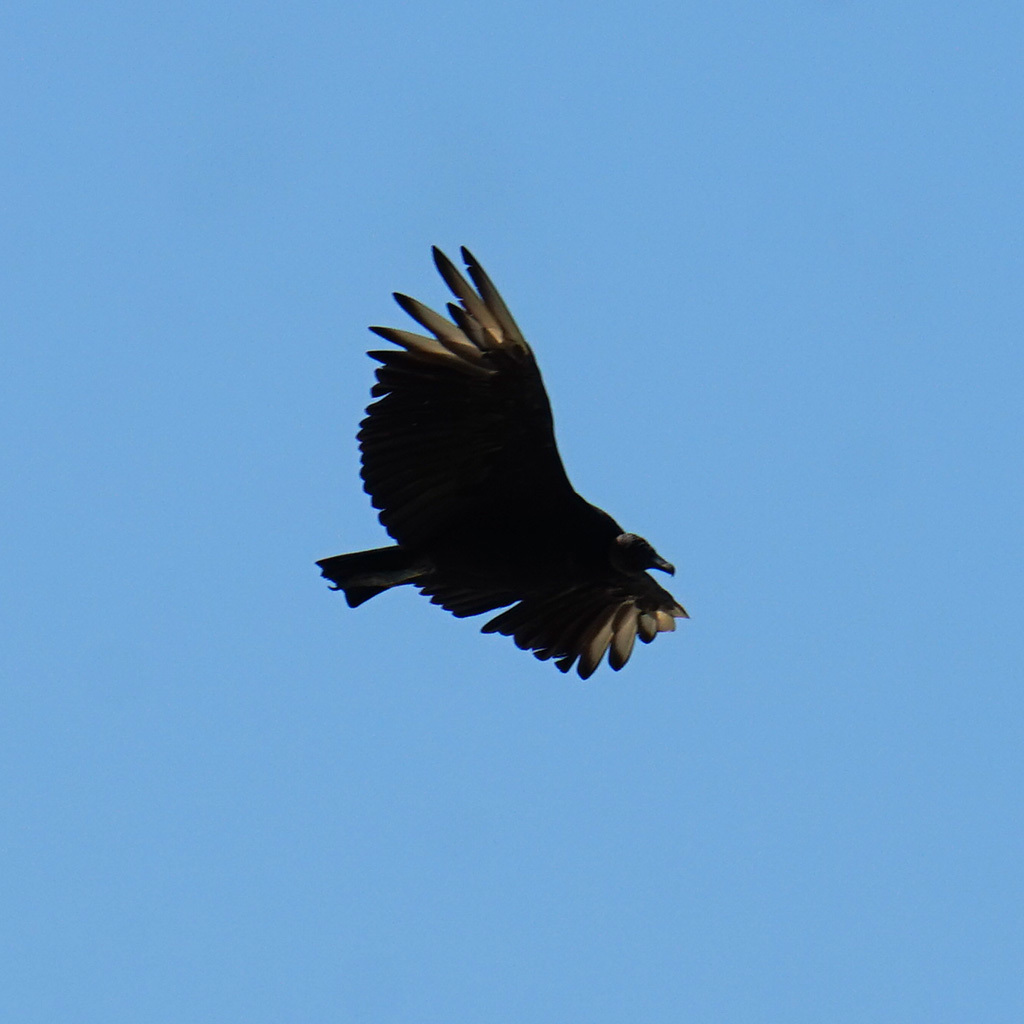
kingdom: Animalia
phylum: Chordata
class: Aves
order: Accipitriformes
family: Cathartidae
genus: Coragyps
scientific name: Coragyps atratus
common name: Black vulture
